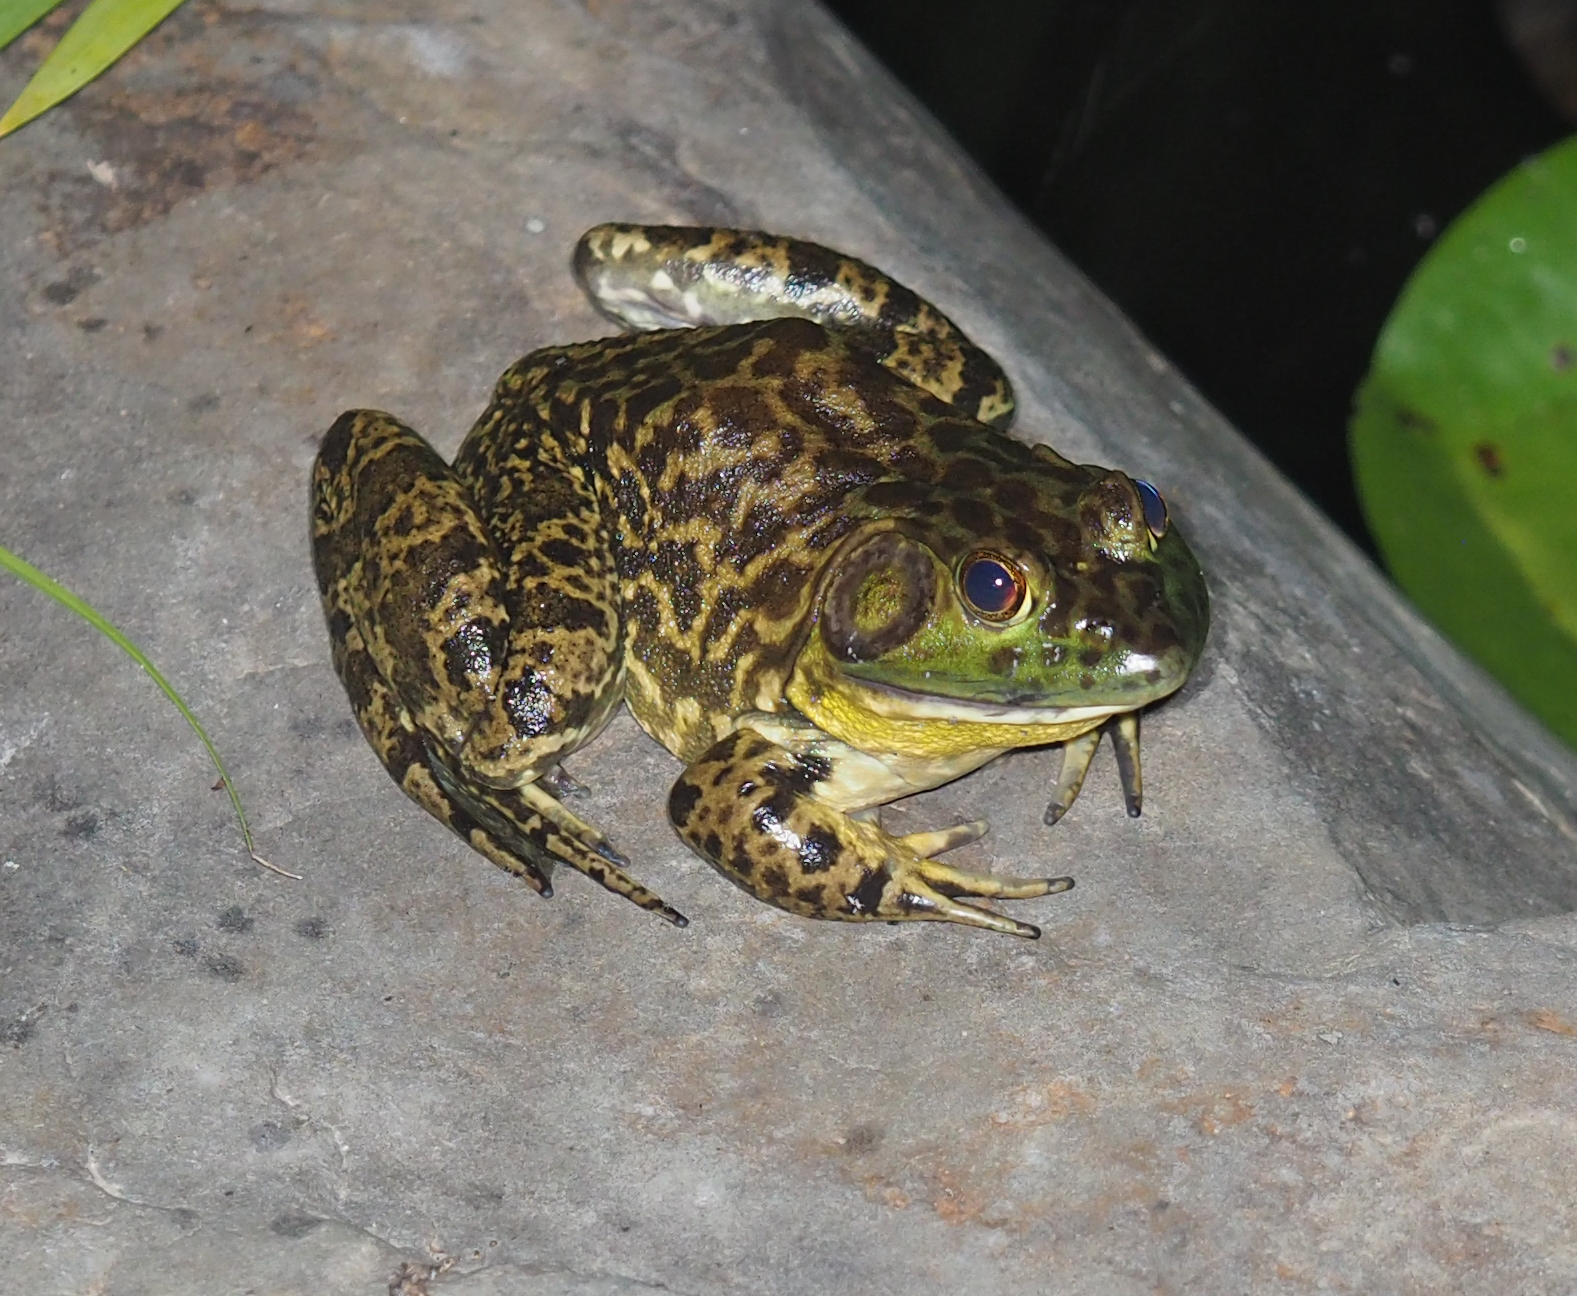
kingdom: Animalia
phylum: Chordata
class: Amphibia
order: Anura
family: Ranidae
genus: Lithobates
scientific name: Lithobates catesbeianus
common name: American bullfrog
